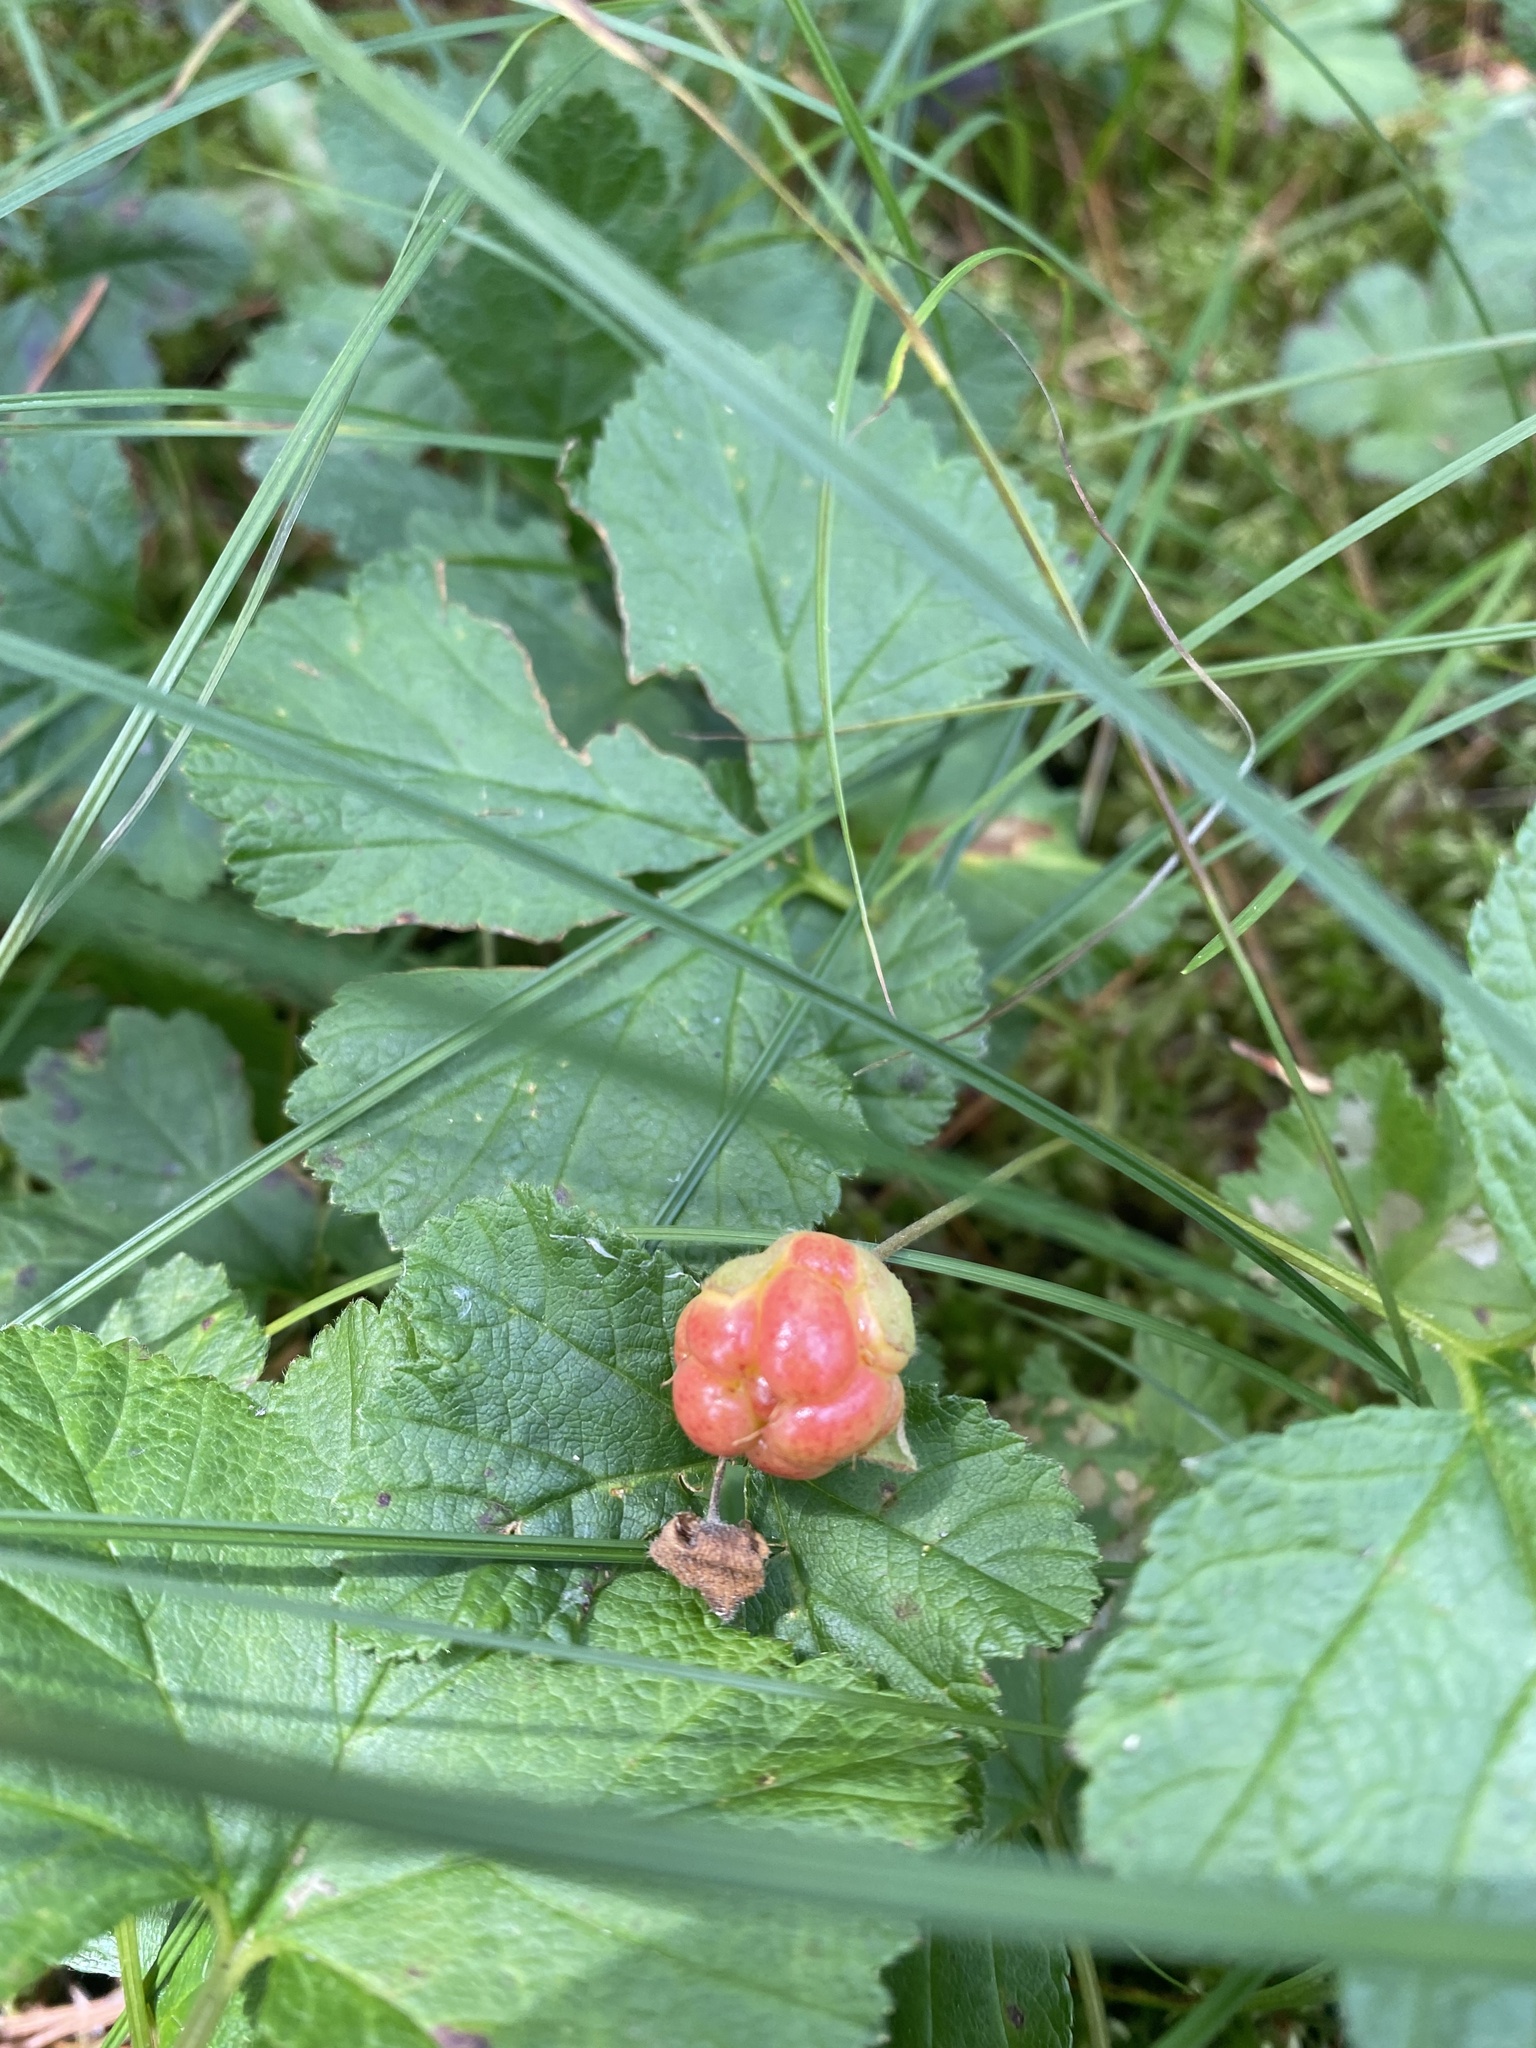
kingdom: Plantae
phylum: Tracheophyta
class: Magnoliopsida
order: Rosales
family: Rosaceae
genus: Rubus
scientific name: Rubus chamaemorus
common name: Cloudberry
